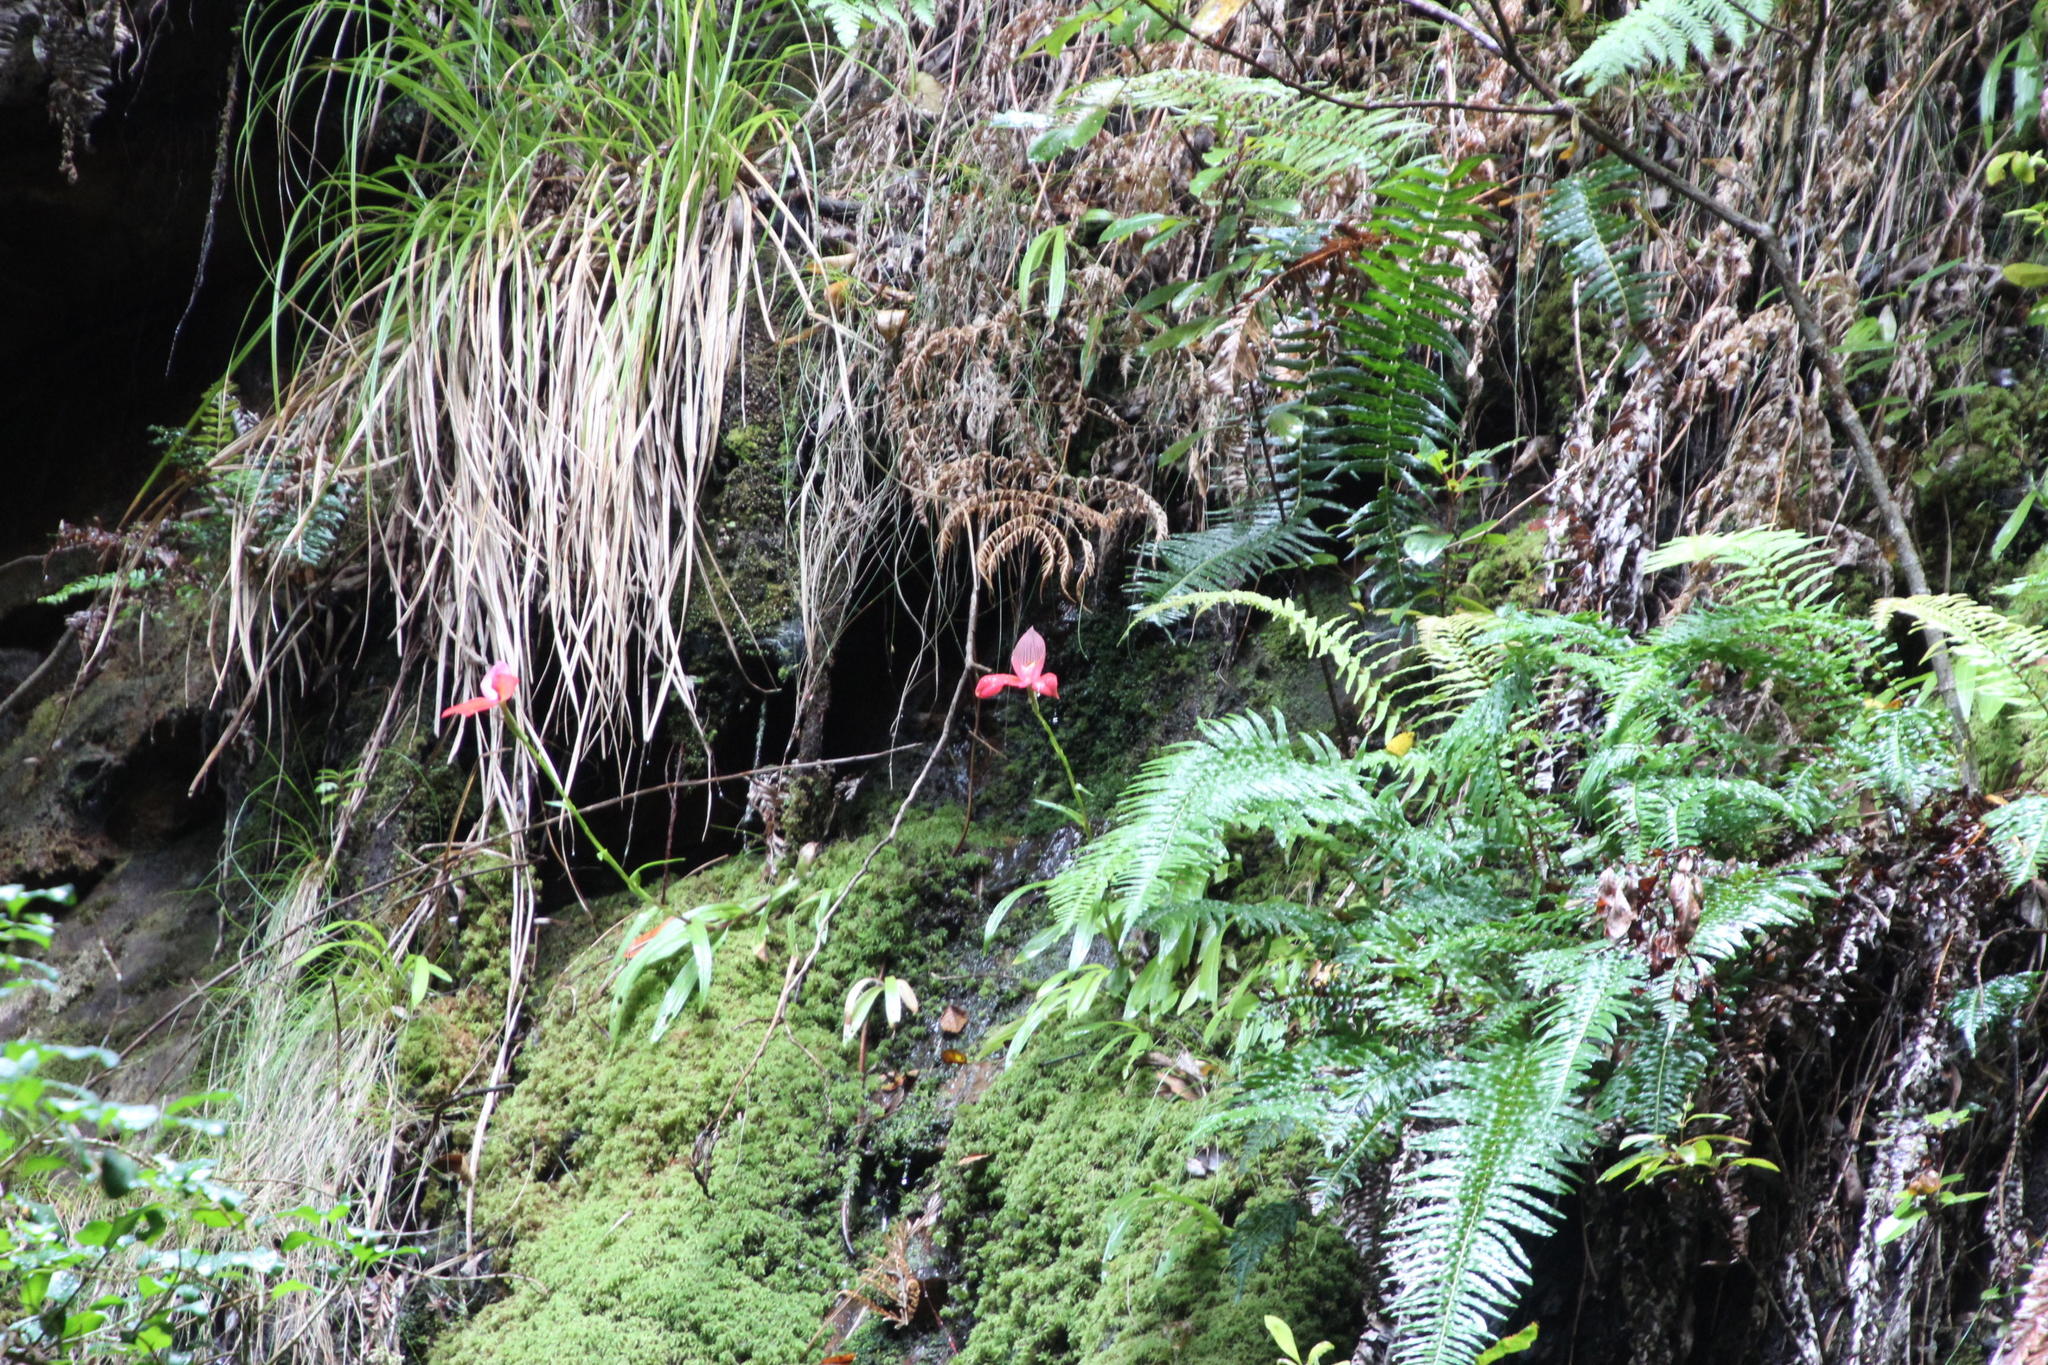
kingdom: Plantae
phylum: Tracheophyta
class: Liliopsida
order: Asparagales
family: Orchidaceae
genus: Disa
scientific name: Disa uniflora
